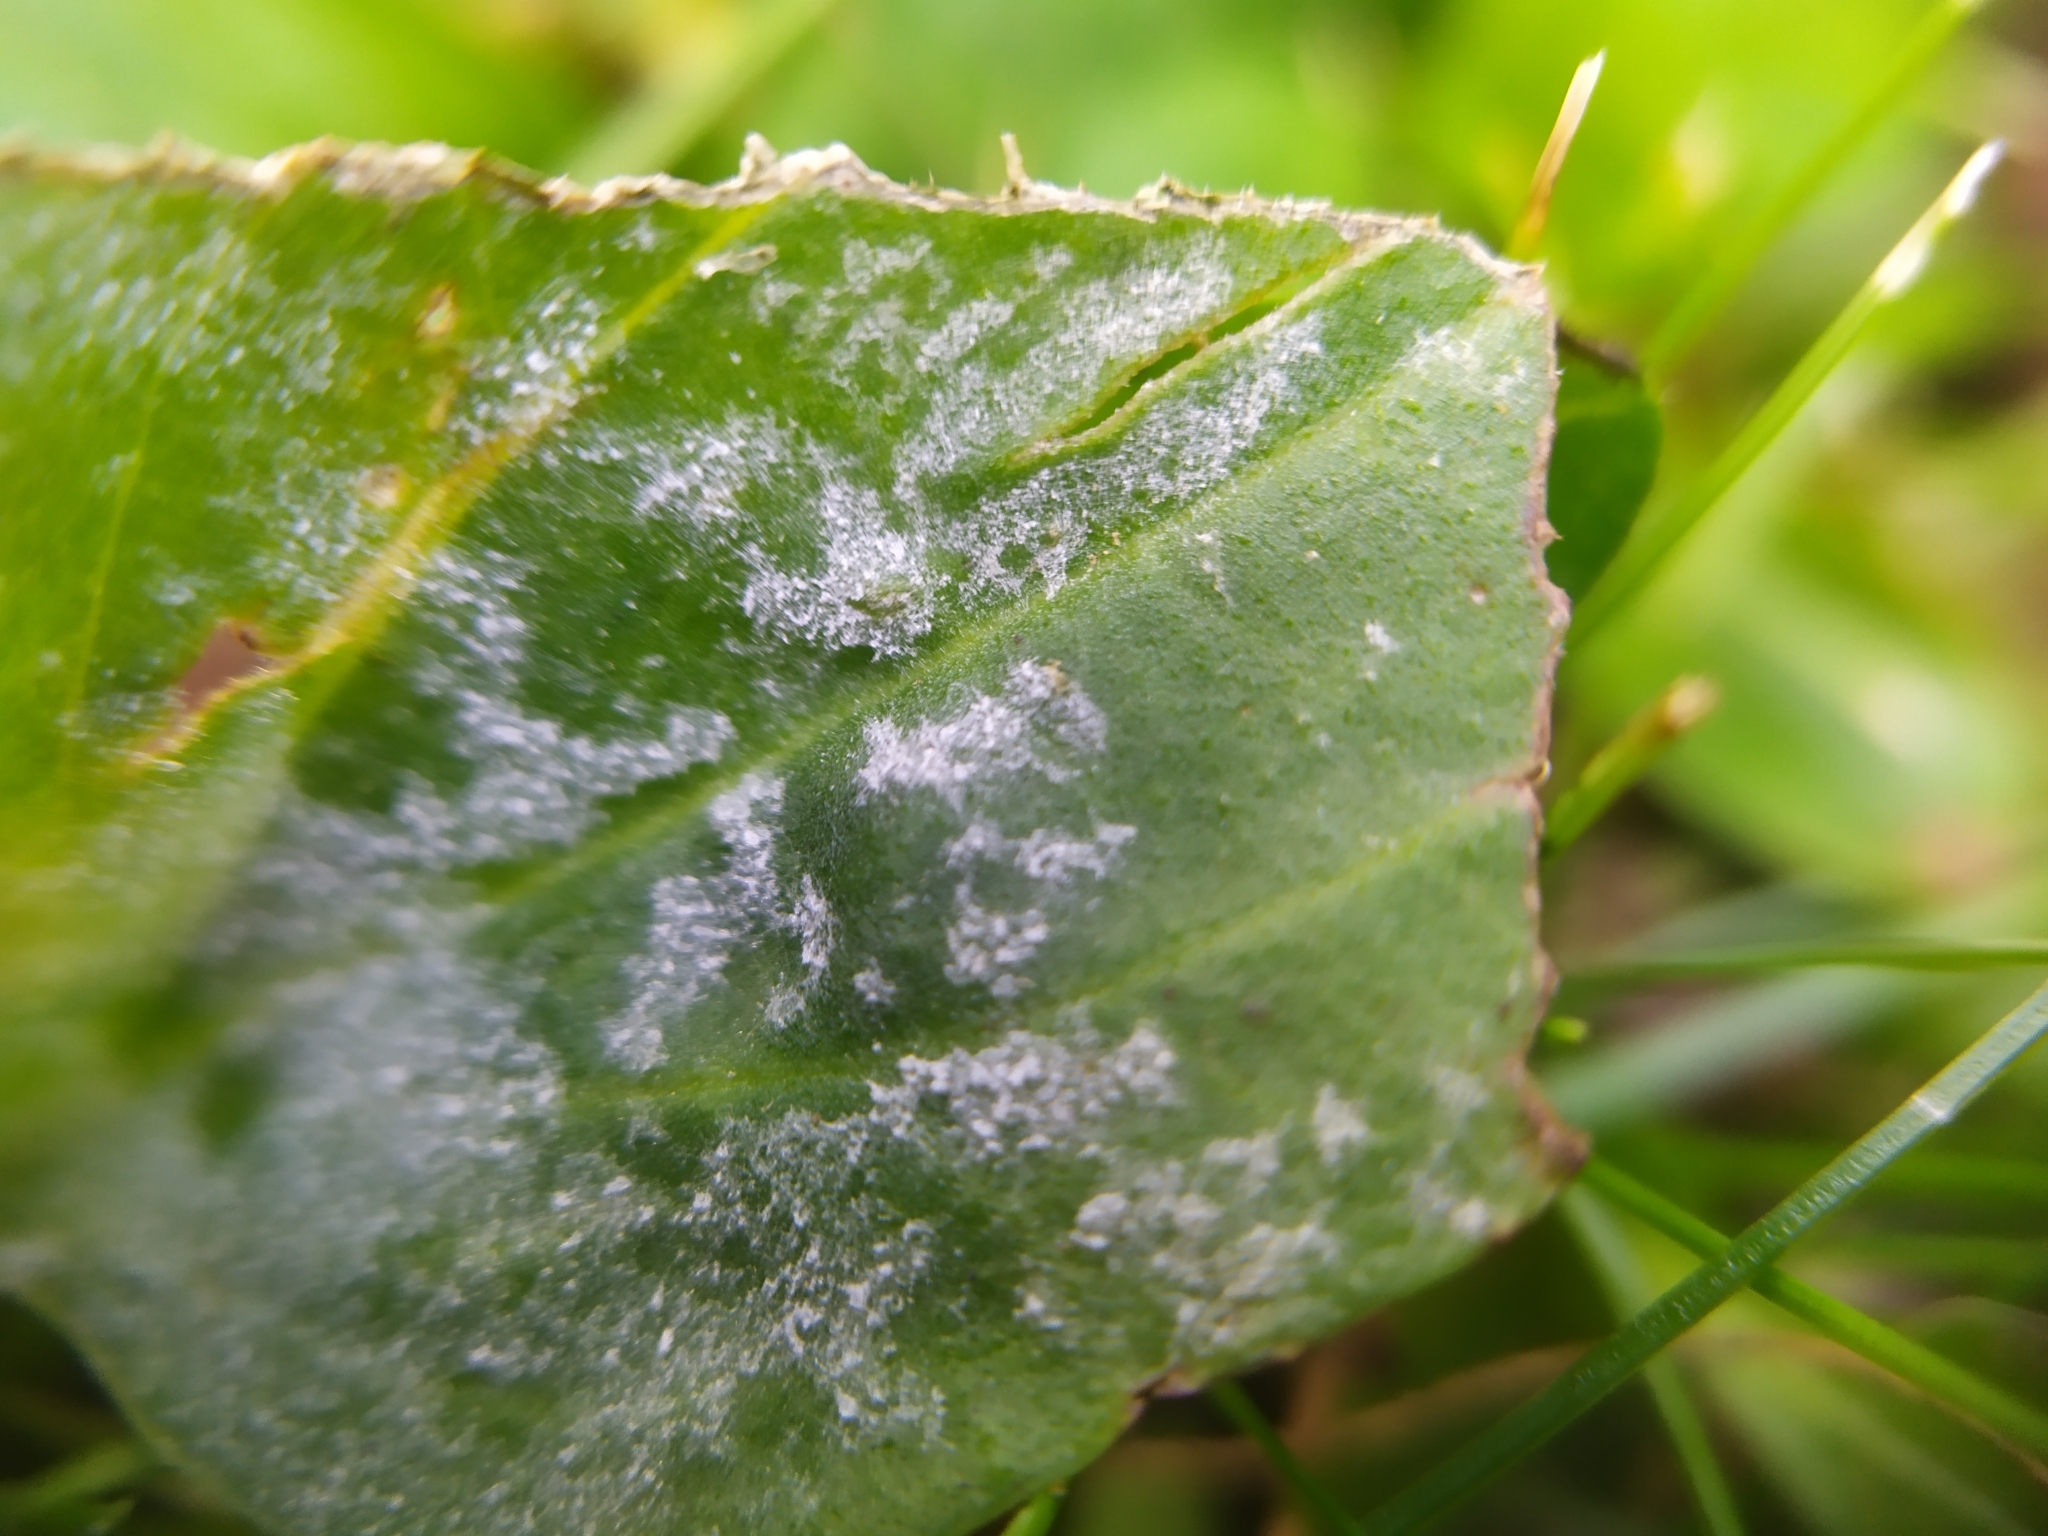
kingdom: Fungi
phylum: Ascomycota
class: Leotiomycetes
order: Helotiales
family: Erysiphaceae
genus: Golovinomyces
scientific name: Golovinomyces sordidus
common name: Plantain mildew
